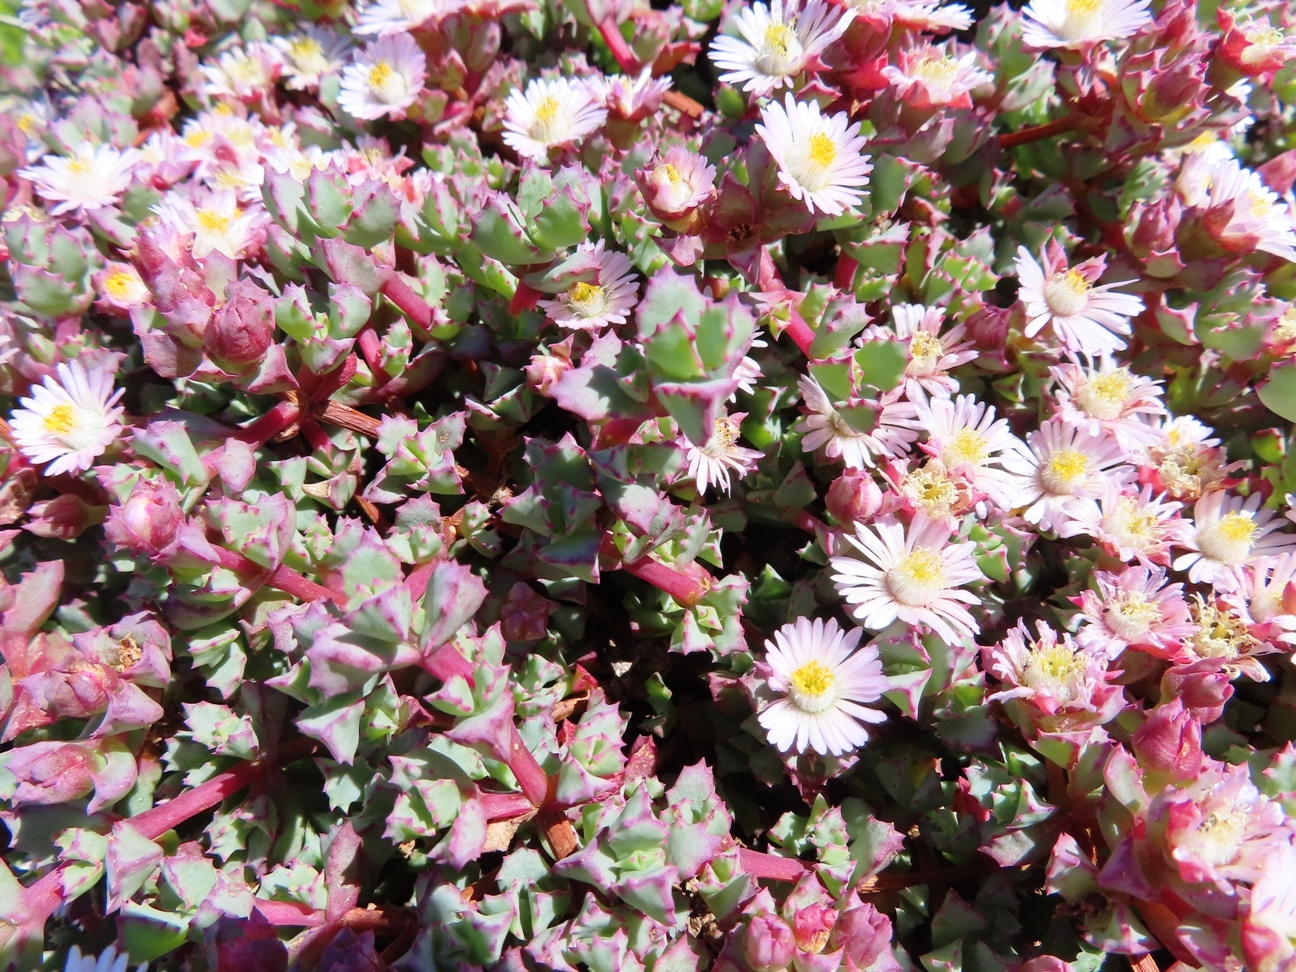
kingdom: Plantae
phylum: Tracheophyta
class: Magnoliopsida
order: Caryophyllales
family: Aizoaceae
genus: Oscularia
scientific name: Oscularia deltoides
